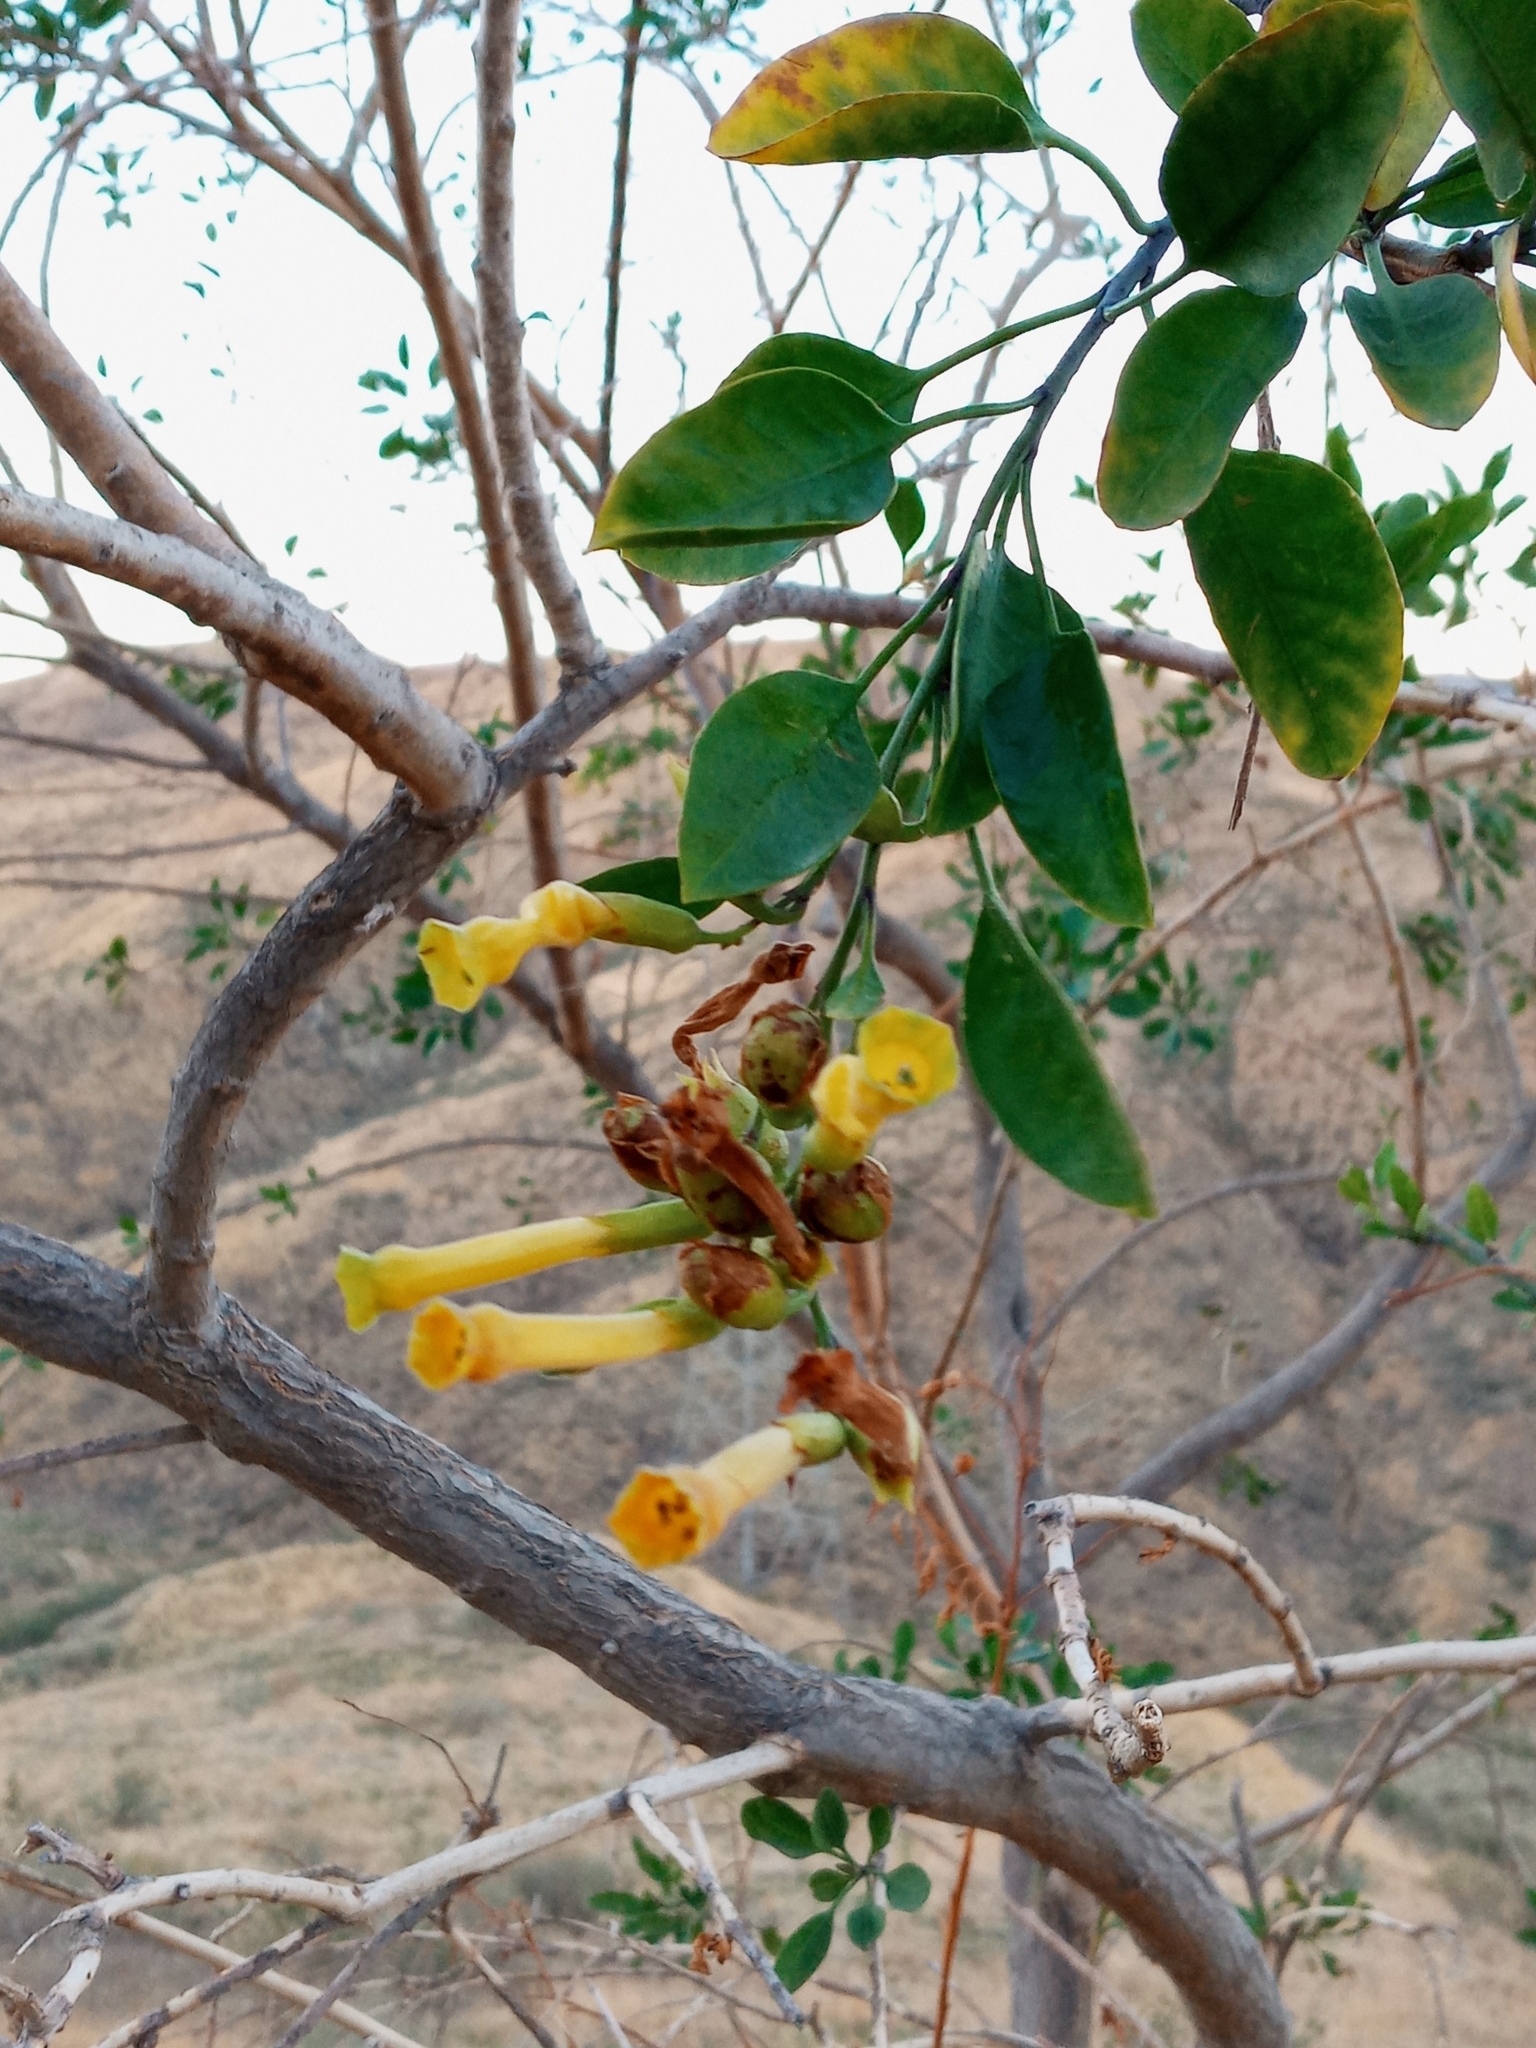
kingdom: Plantae
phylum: Tracheophyta
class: Magnoliopsida
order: Solanales
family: Solanaceae
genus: Nicotiana
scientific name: Nicotiana glauca
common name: Tree tobacco
